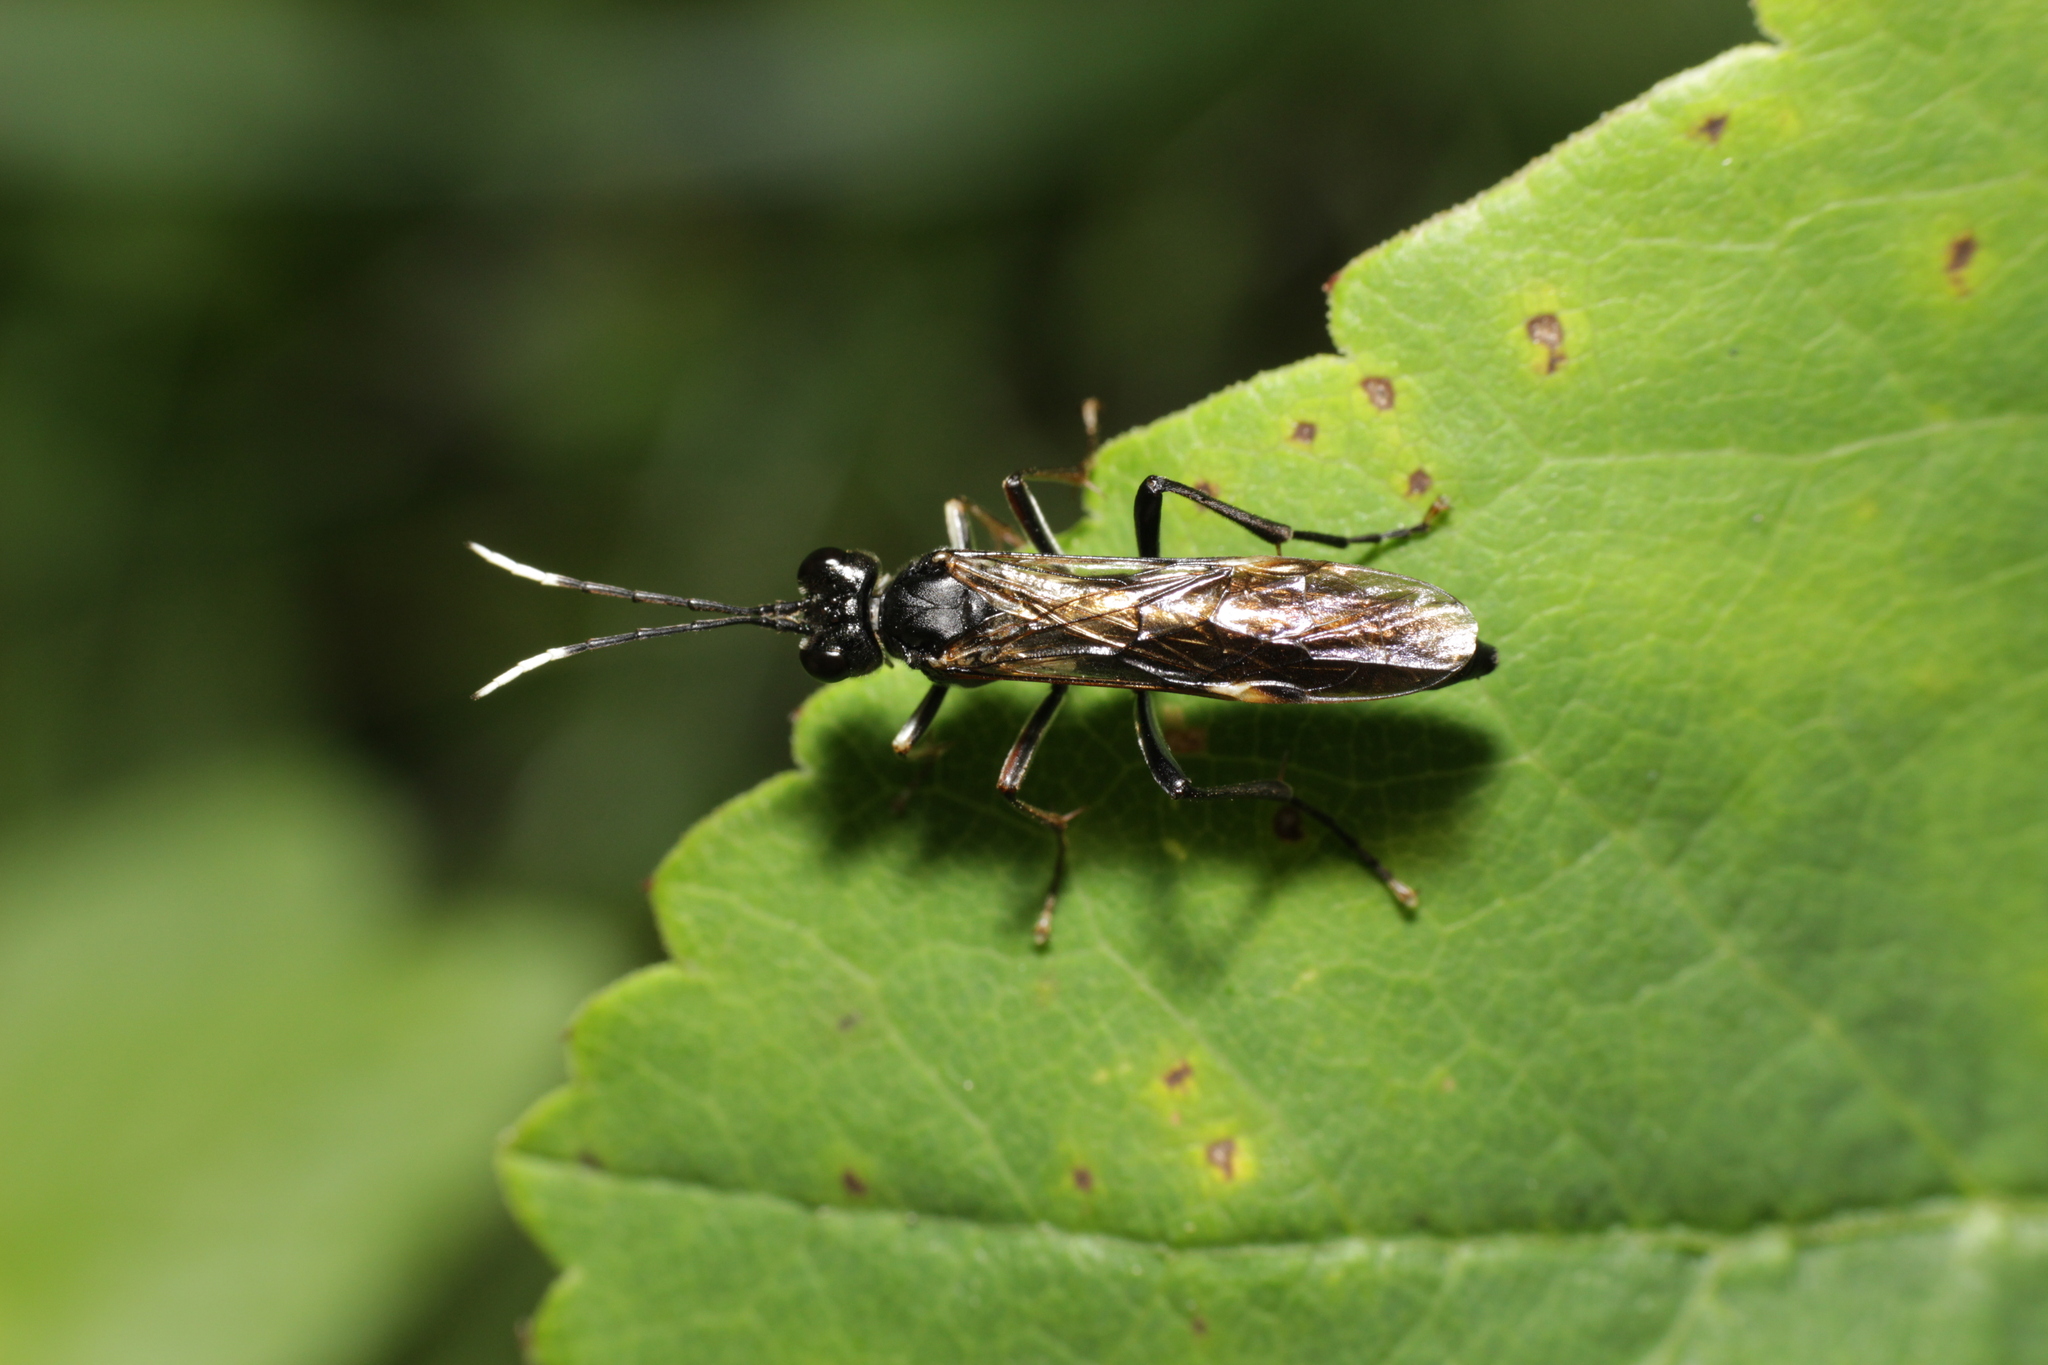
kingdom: Animalia
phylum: Arthropoda
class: Insecta
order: Hymenoptera
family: Tenthredinidae
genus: Tenthredo
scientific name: Tenthredo livida
